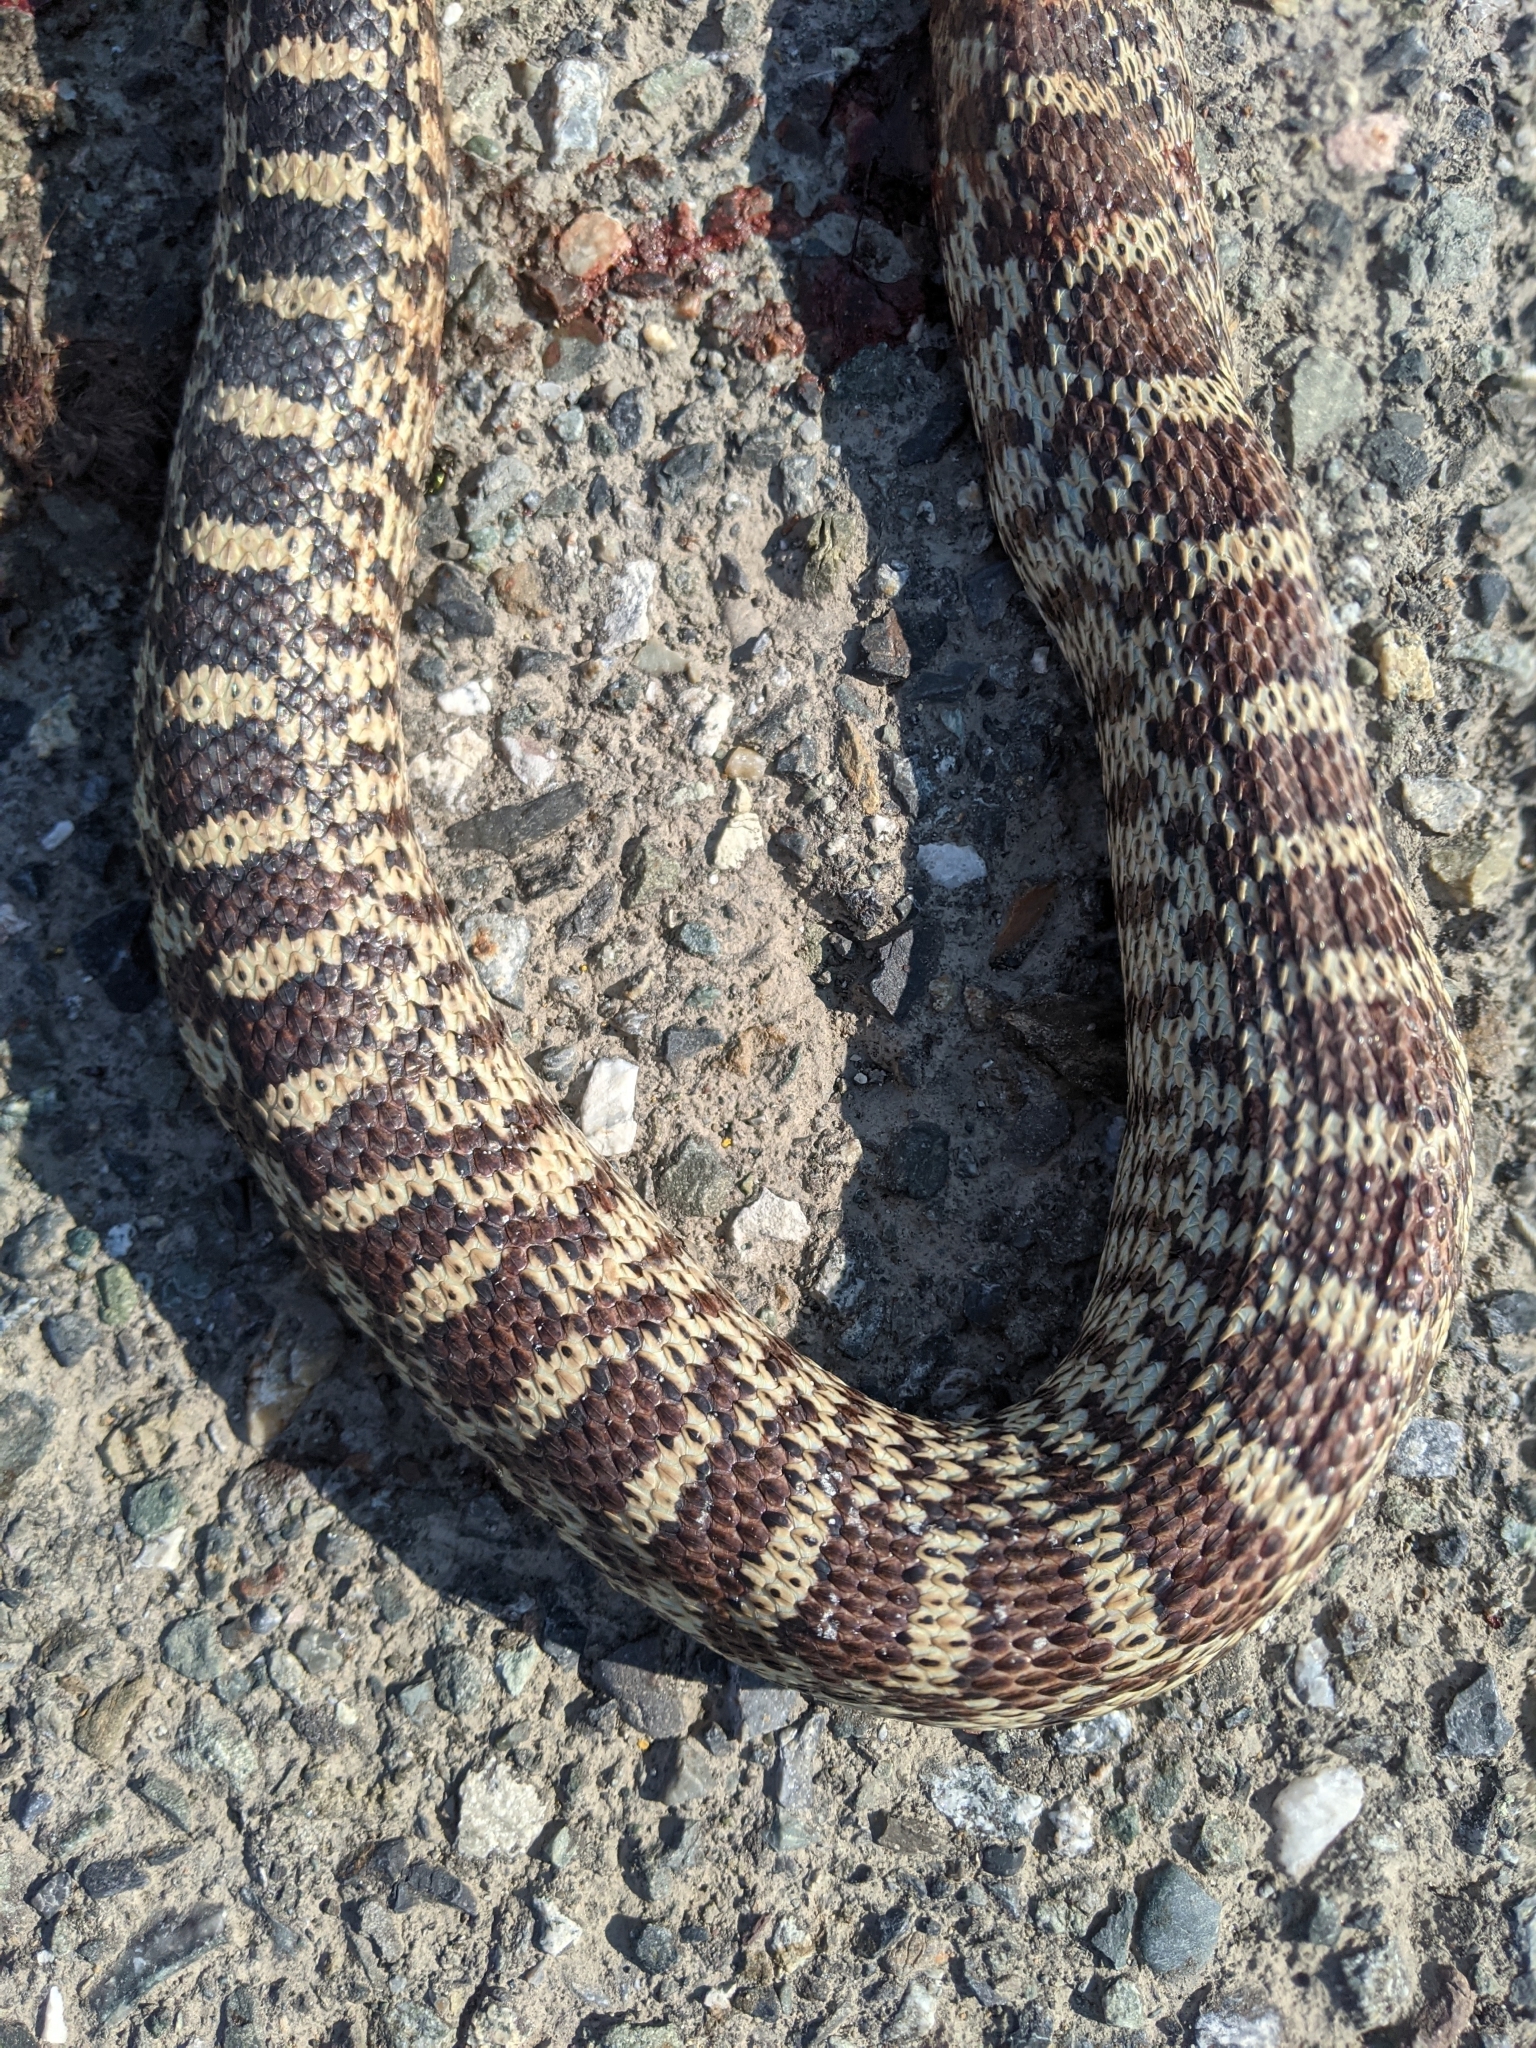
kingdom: Animalia
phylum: Chordata
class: Squamata
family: Colubridae
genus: Pituophis
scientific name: Pituophis catenifer
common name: Gopher snake
